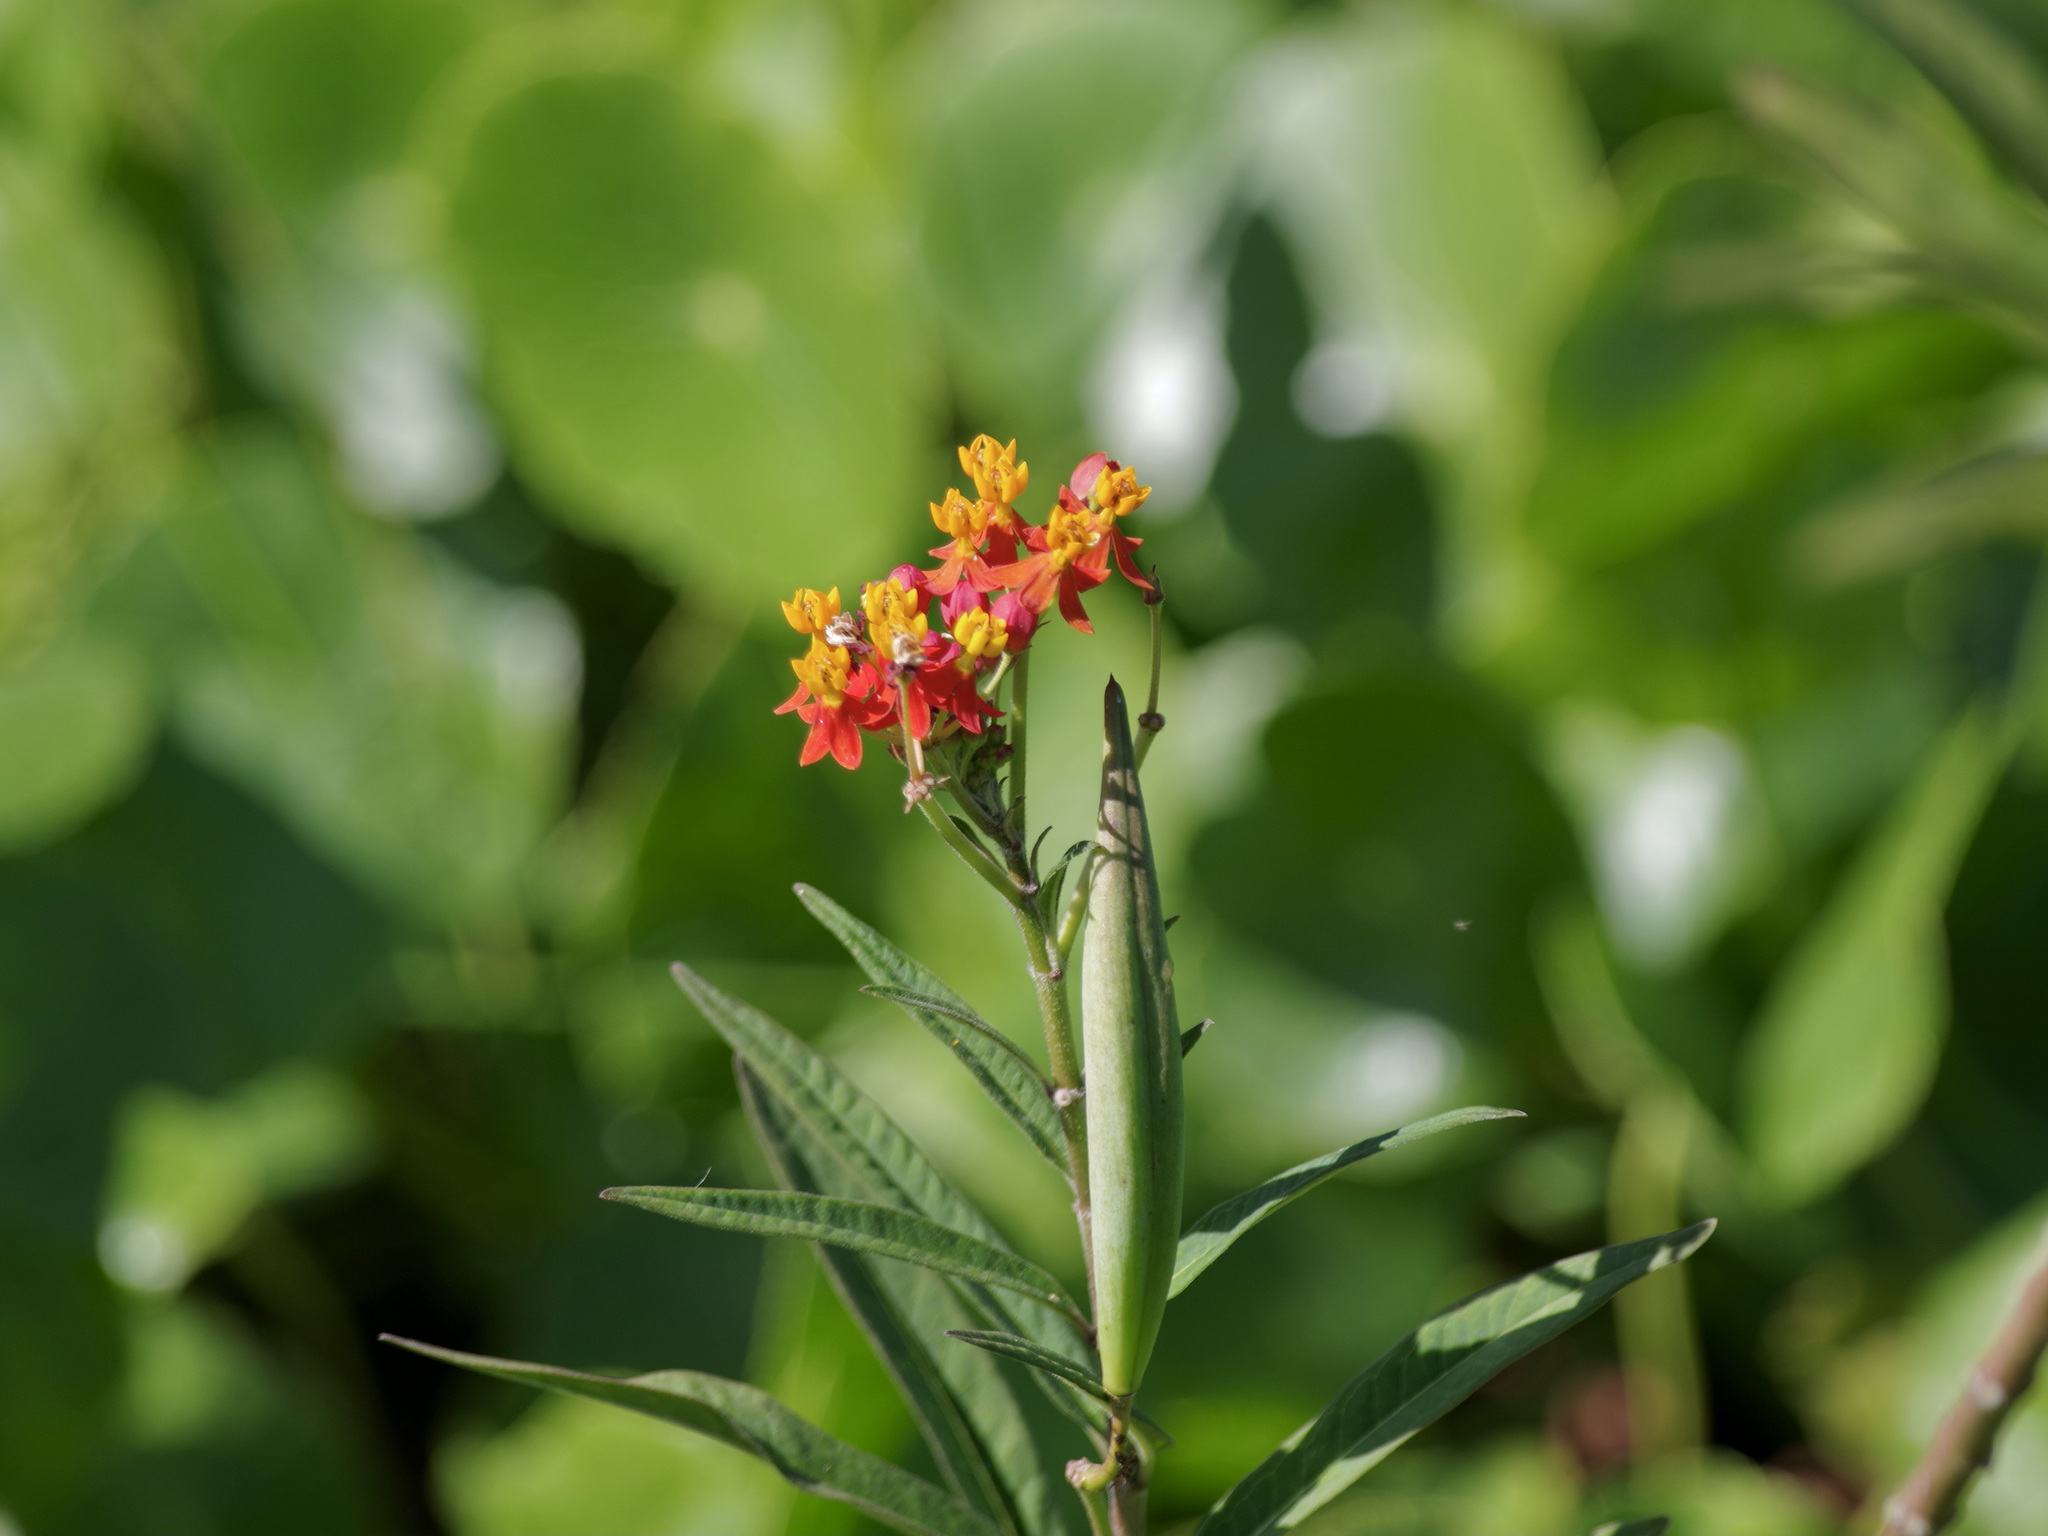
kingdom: Plantae
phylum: Tracheophyta
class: Magnoliopsida
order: Gentianales
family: Apocynaceae
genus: Asclepias
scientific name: Asclepias curassavica
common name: Bloodflower
